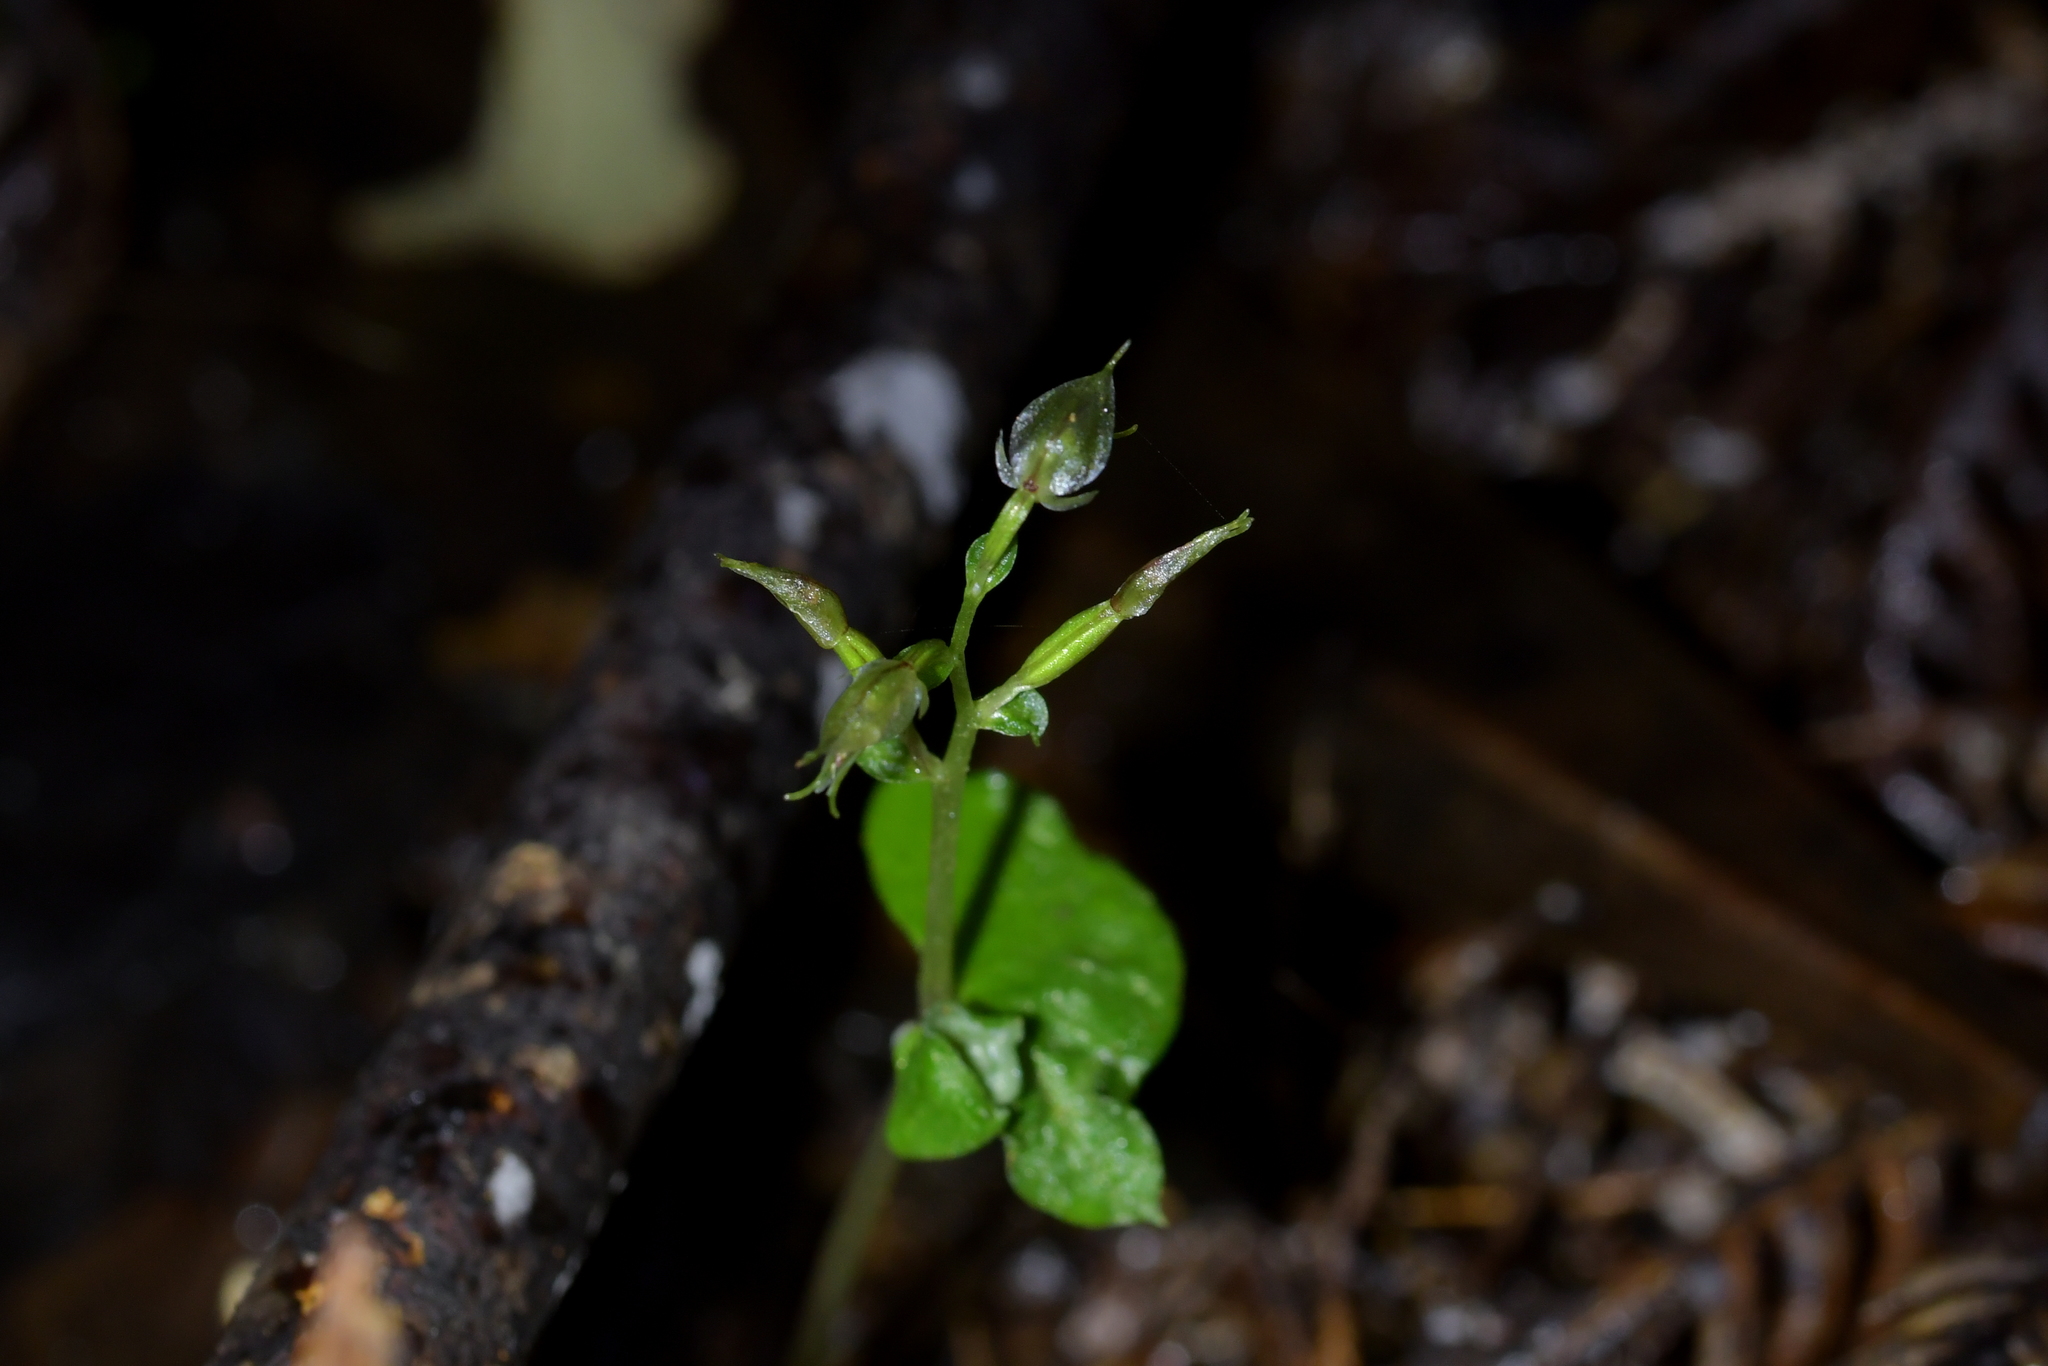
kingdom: Plantae
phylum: Tracheophyta
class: Liliopsida
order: Asparagales
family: Orchidaceae
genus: Acianthus
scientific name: Acianthus sinclairii
